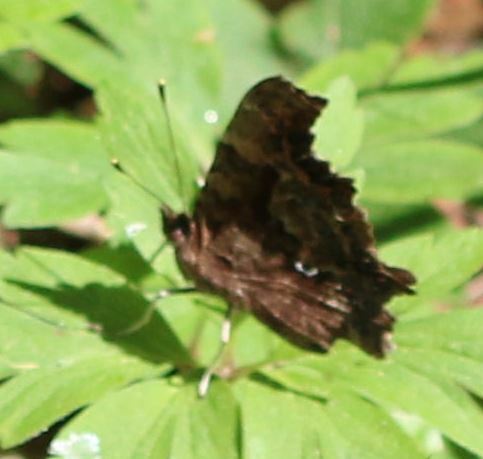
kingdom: Animalia
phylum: Arthropoda
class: Insecta
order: Lepidoptera
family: Nymphalidae
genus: Polygonia
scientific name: Polygonia c-album
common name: Comma
